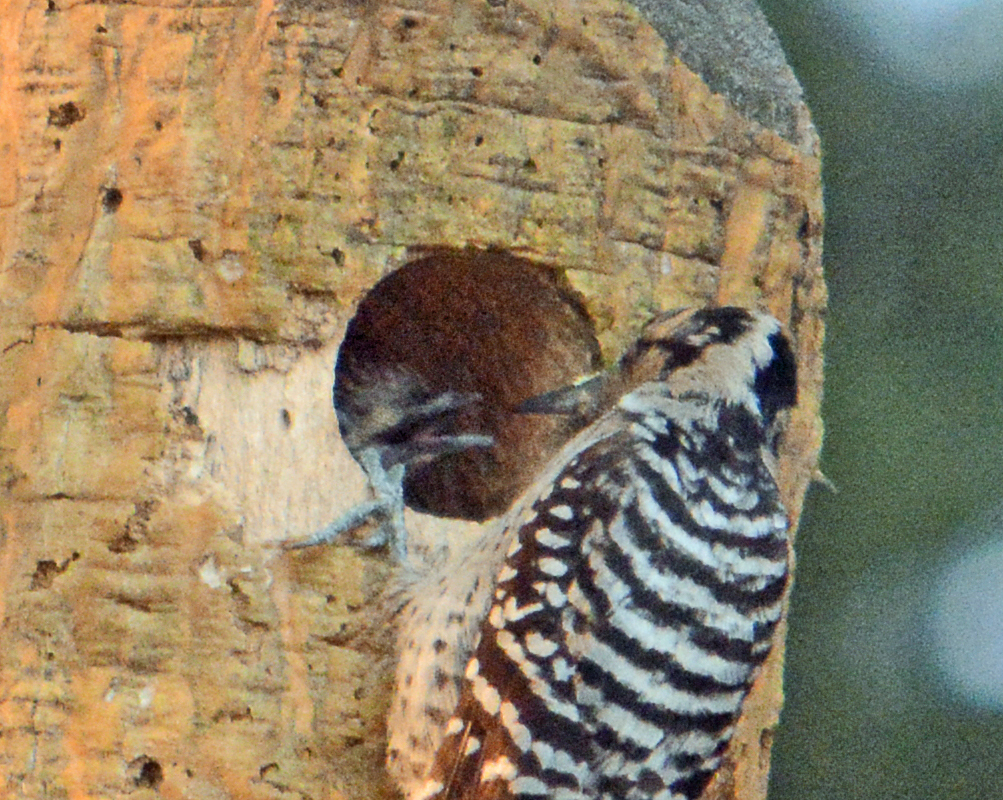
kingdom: Animalia
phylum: Chordata
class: Aves
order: Piciformes
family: Picidae
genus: Dryobates
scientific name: Dryobates scalaris
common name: Ladder-backed woodpecker
